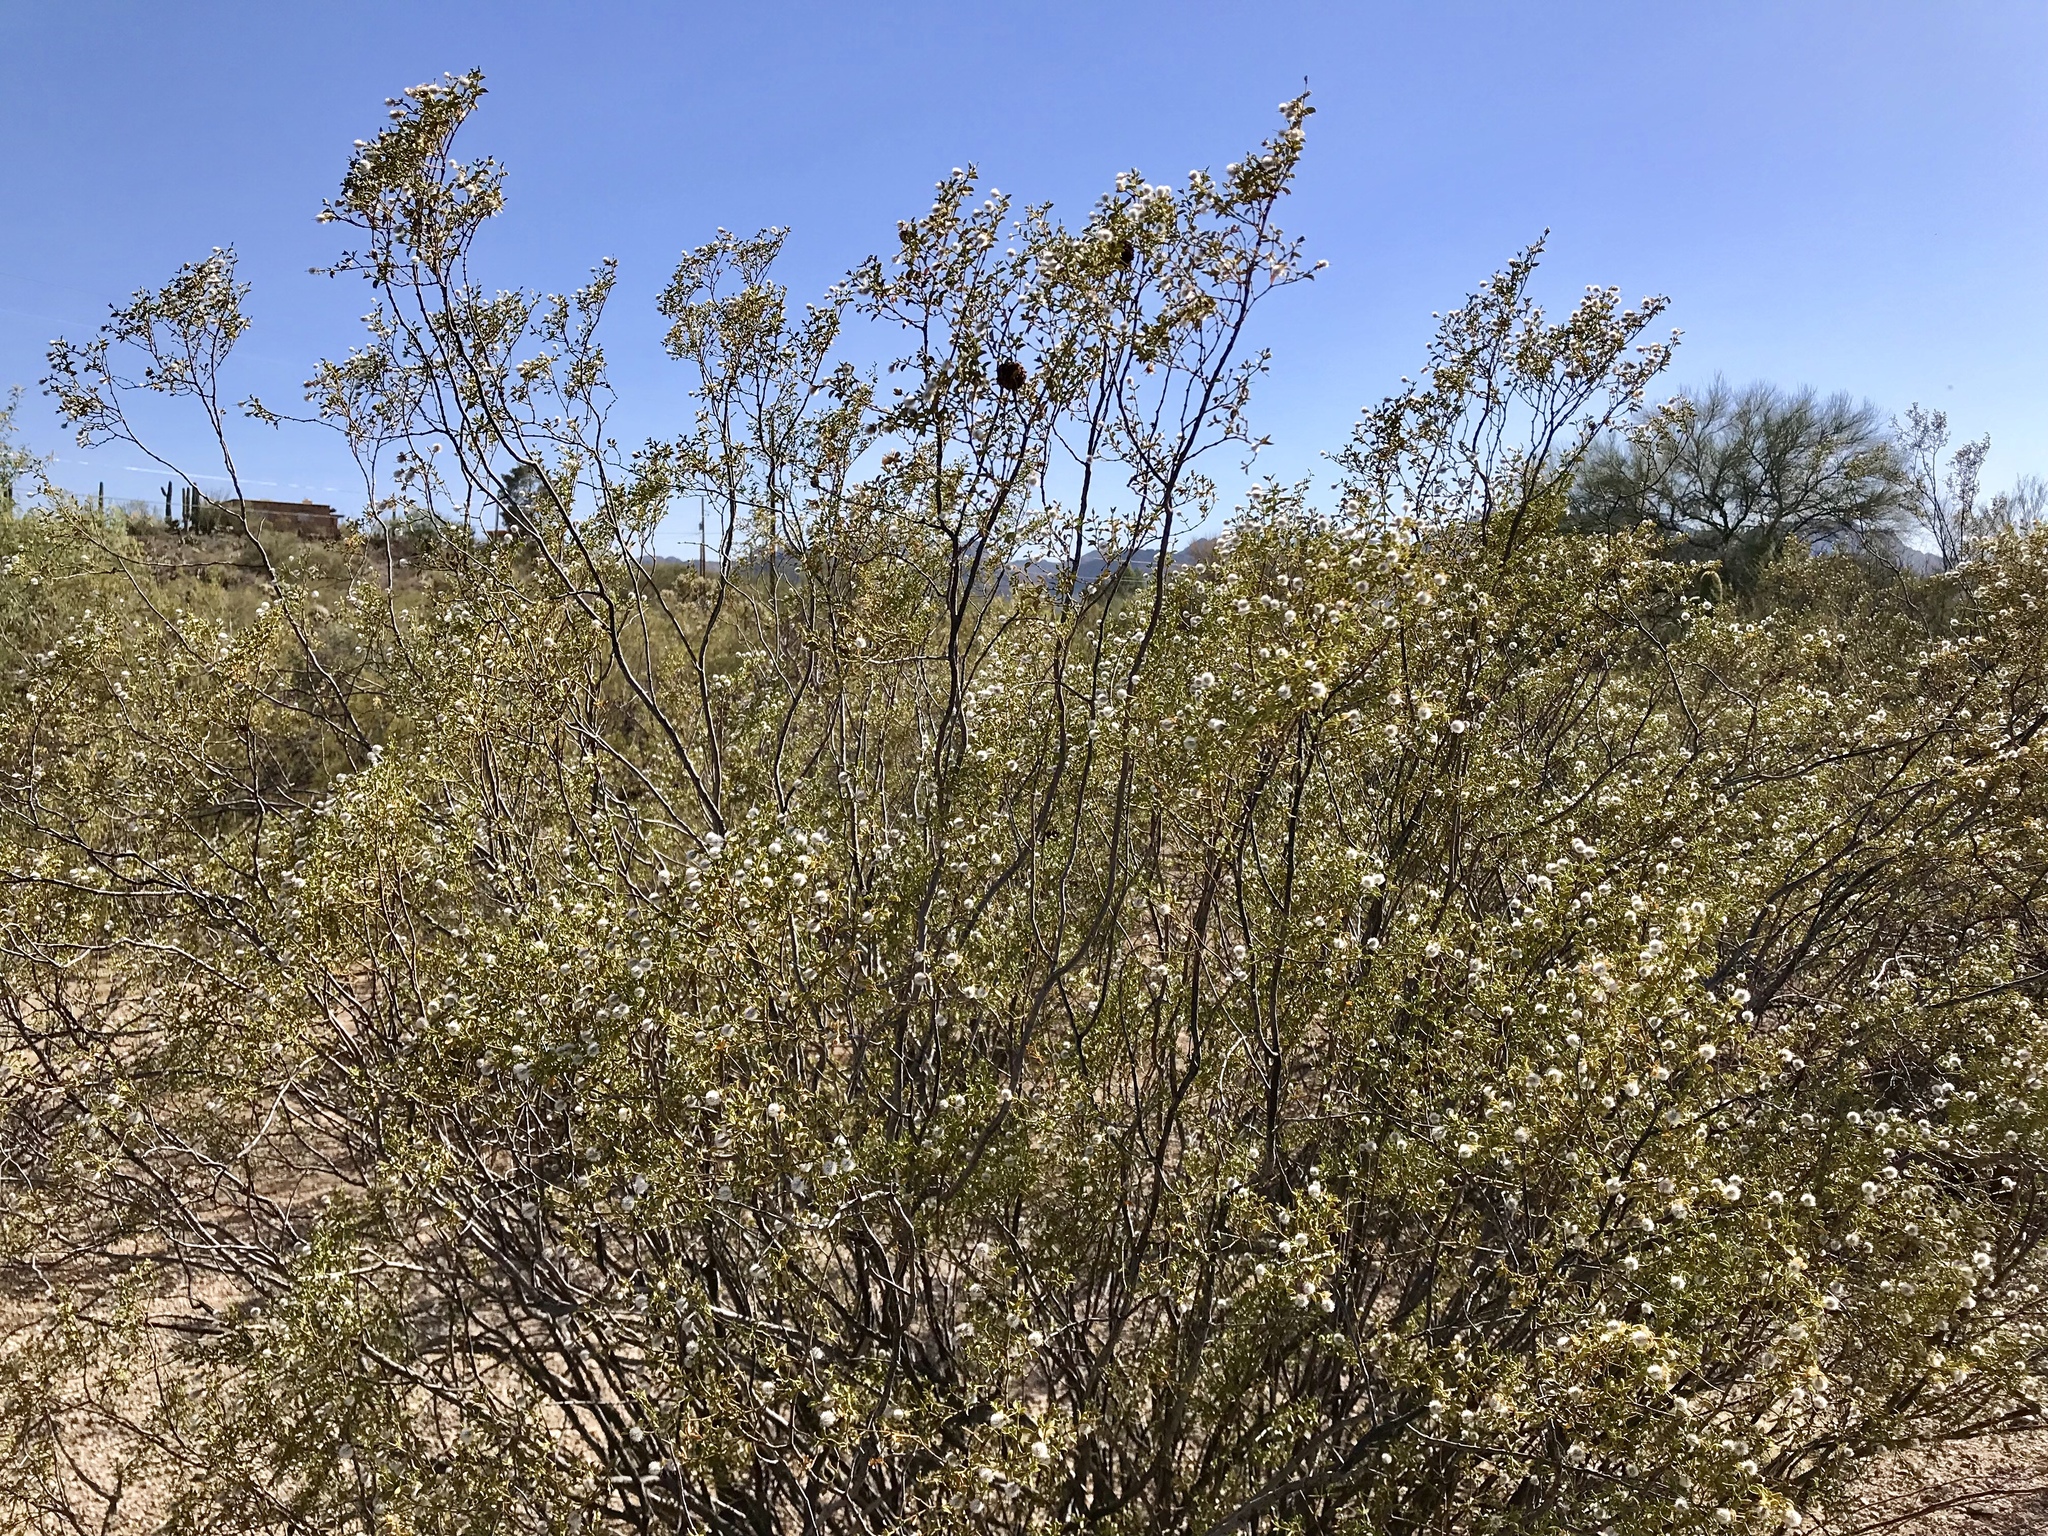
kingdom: Plantae
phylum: Tracheophyta
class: Magnoliopsida
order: Zygophyllales
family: Zygophyllaceae
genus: Larrea
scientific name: Larrea tridentata
